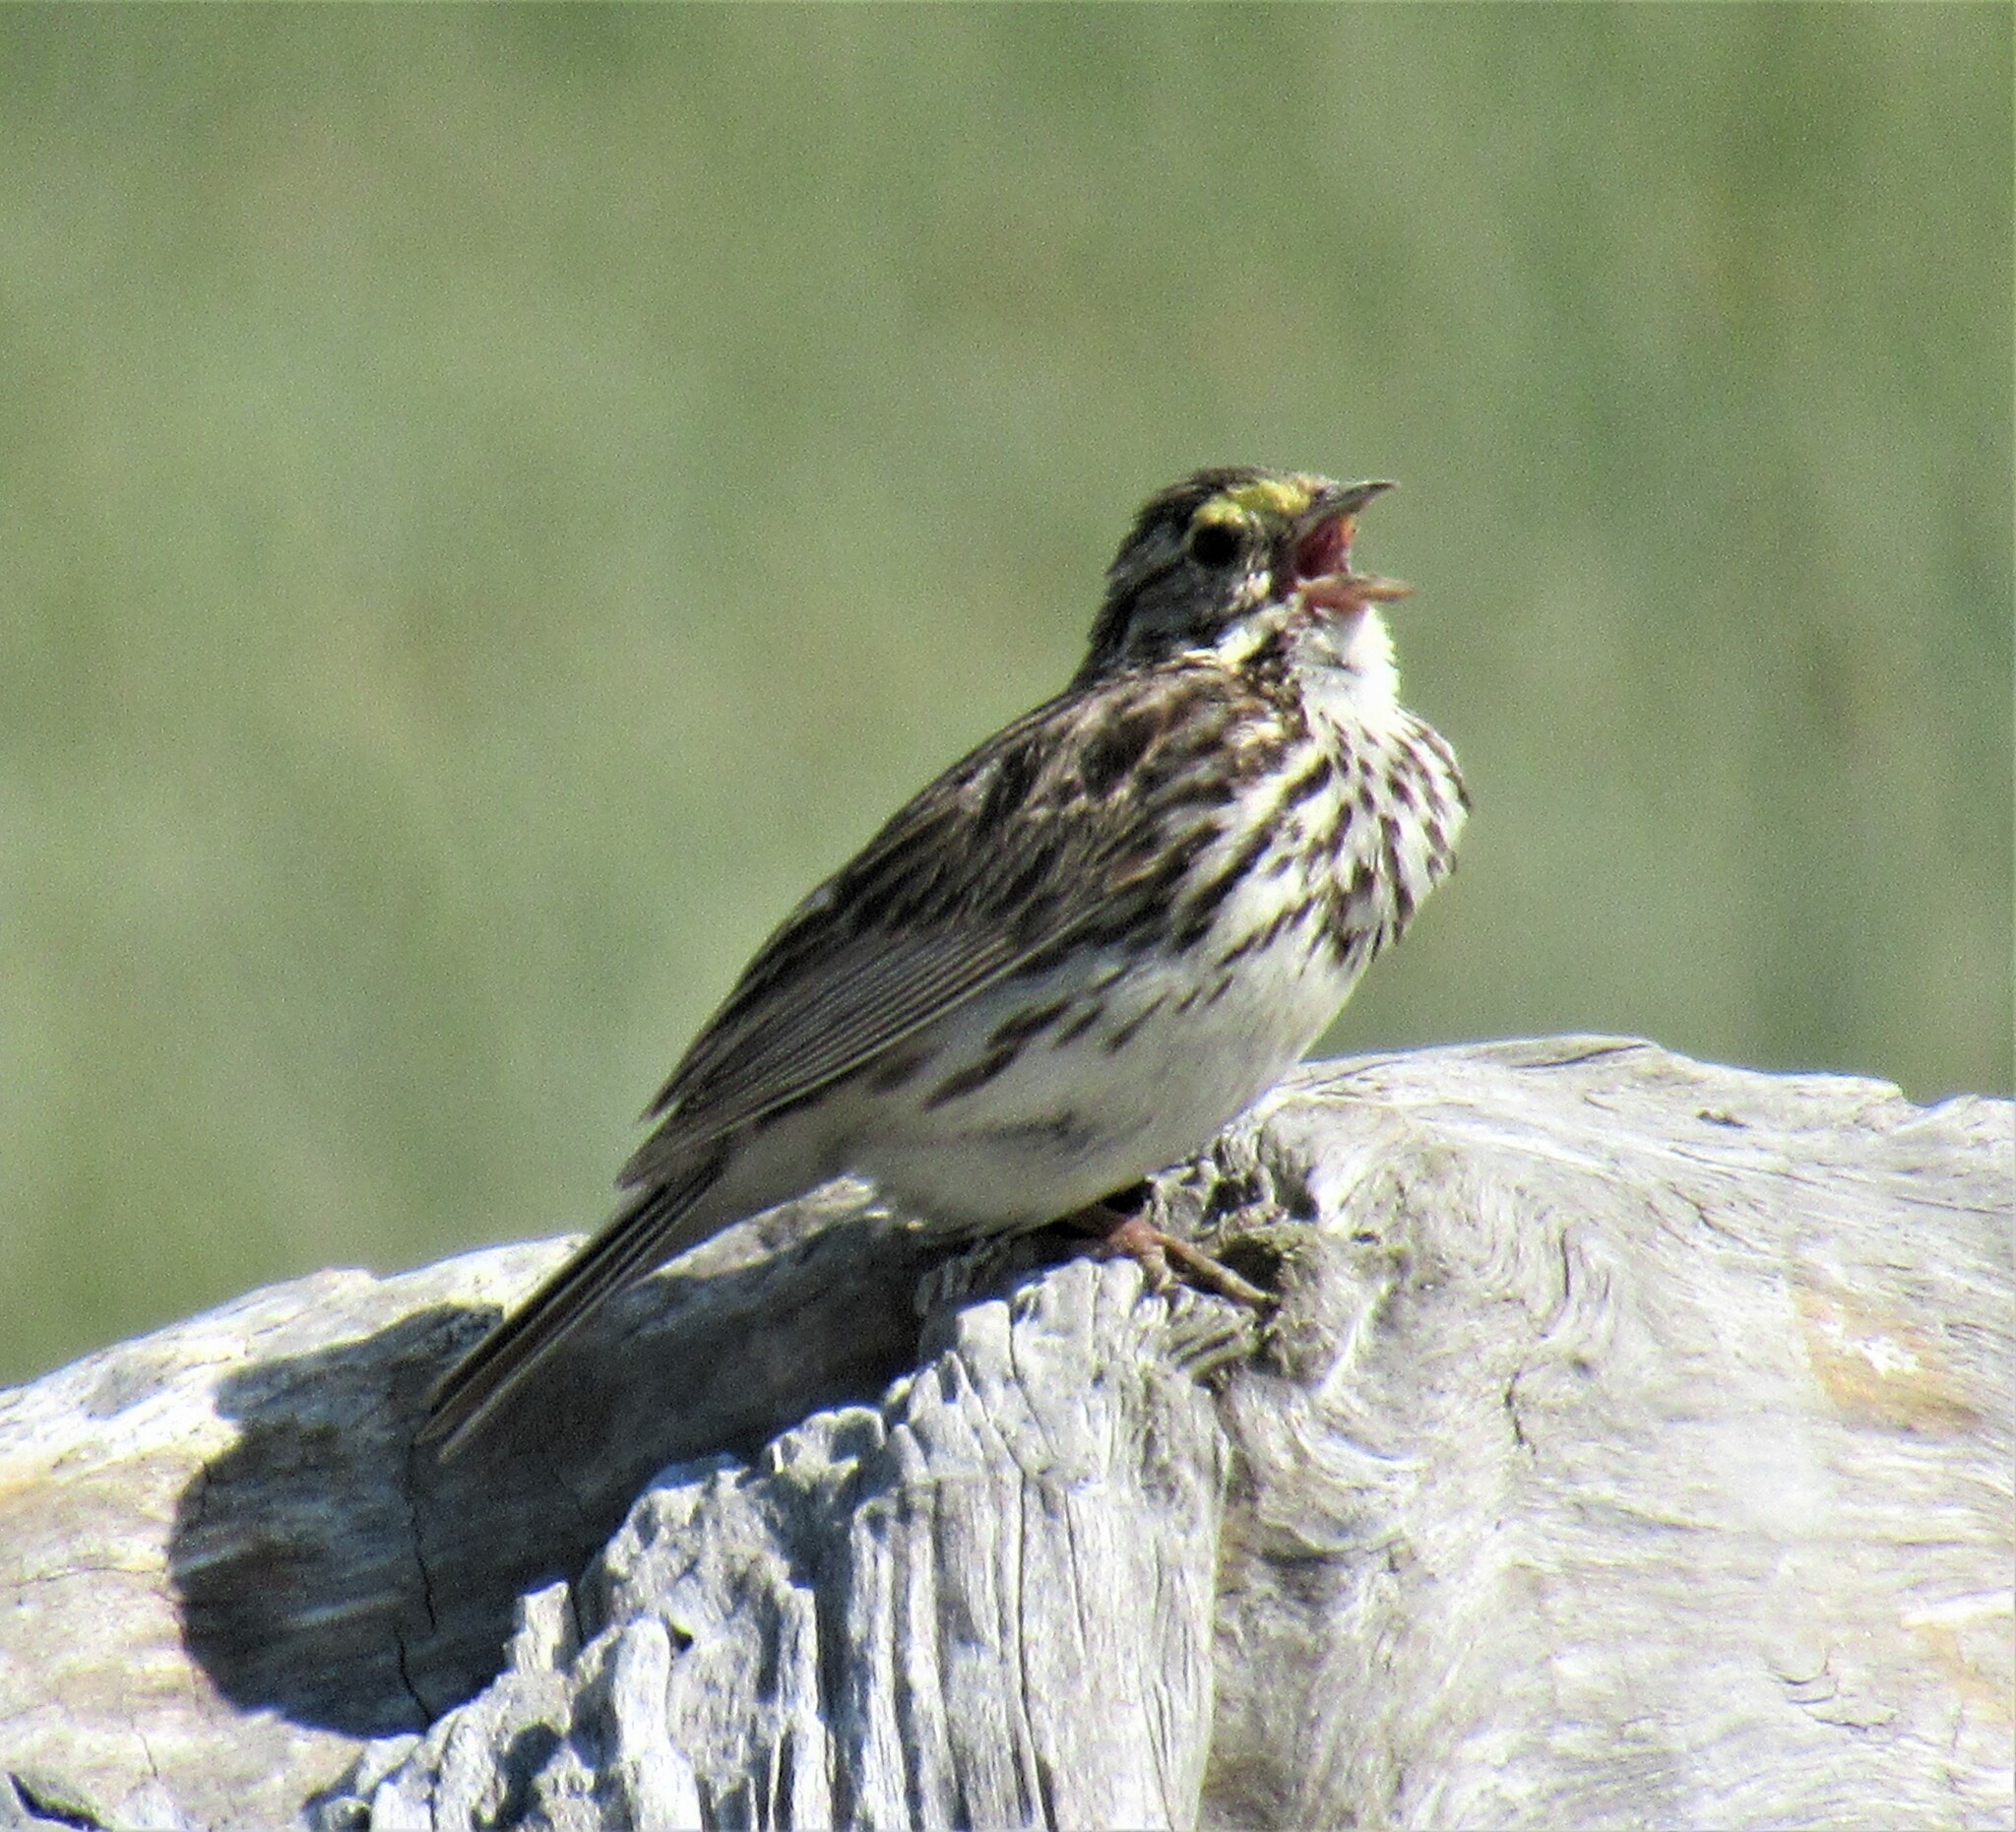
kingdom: Animalia
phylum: Chordata
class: Aves
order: Passeriformes
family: Passerellidae
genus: Passerculus
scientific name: Passerculus sandwichensis
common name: Savannah sparrow
